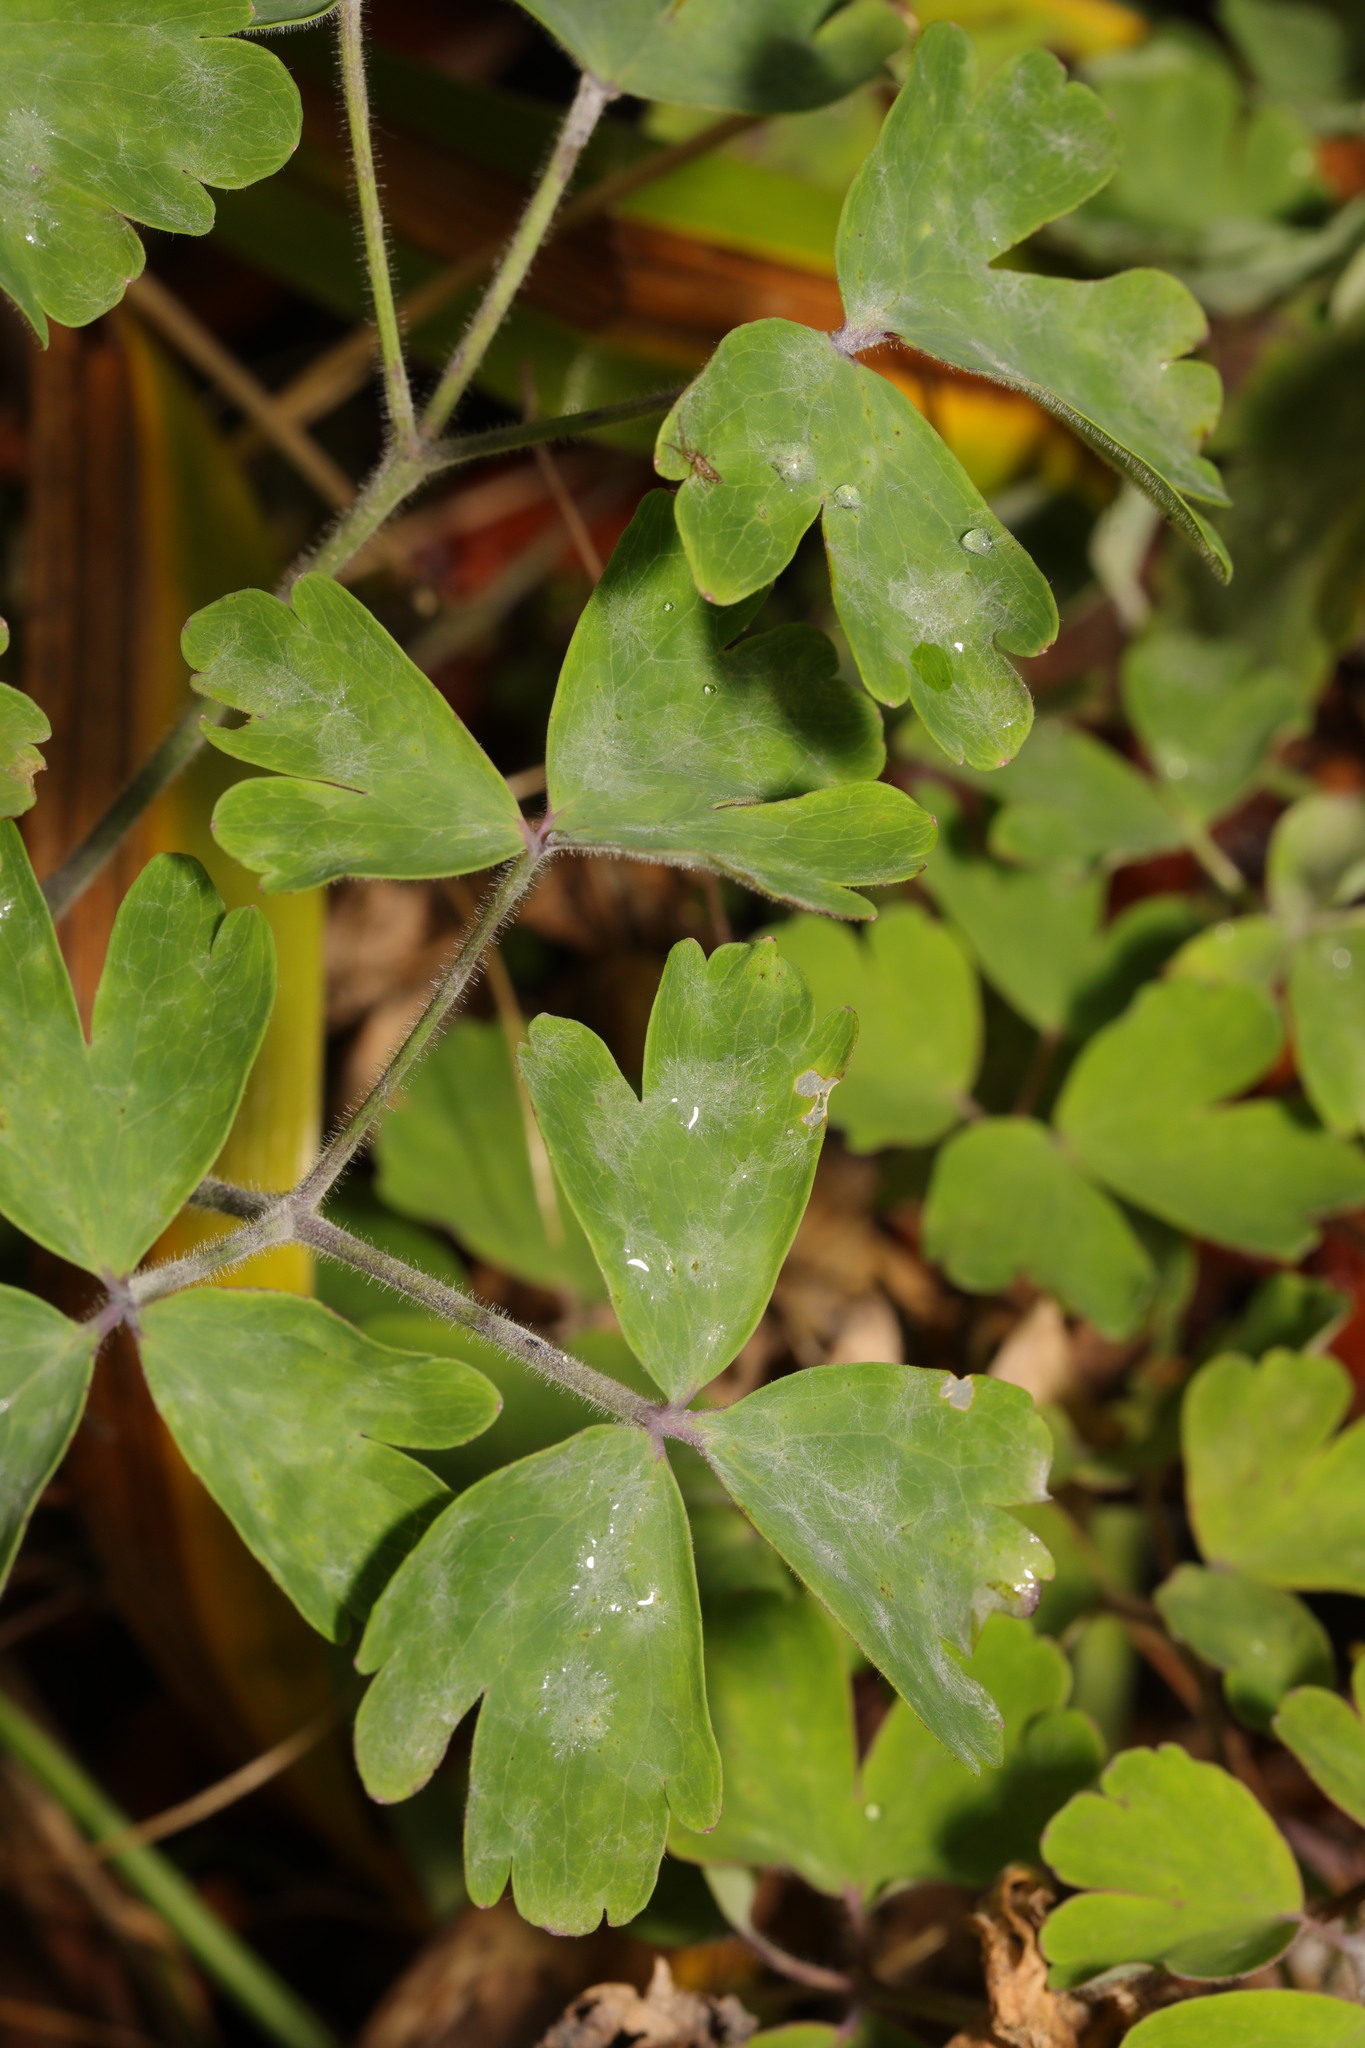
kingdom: Plantae
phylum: Tracheophyta
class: Magnoliopsida
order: Ranunculales
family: Ranunculaceae
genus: Aquilegia
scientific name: Aquilegia vulgaris
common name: Columbine
